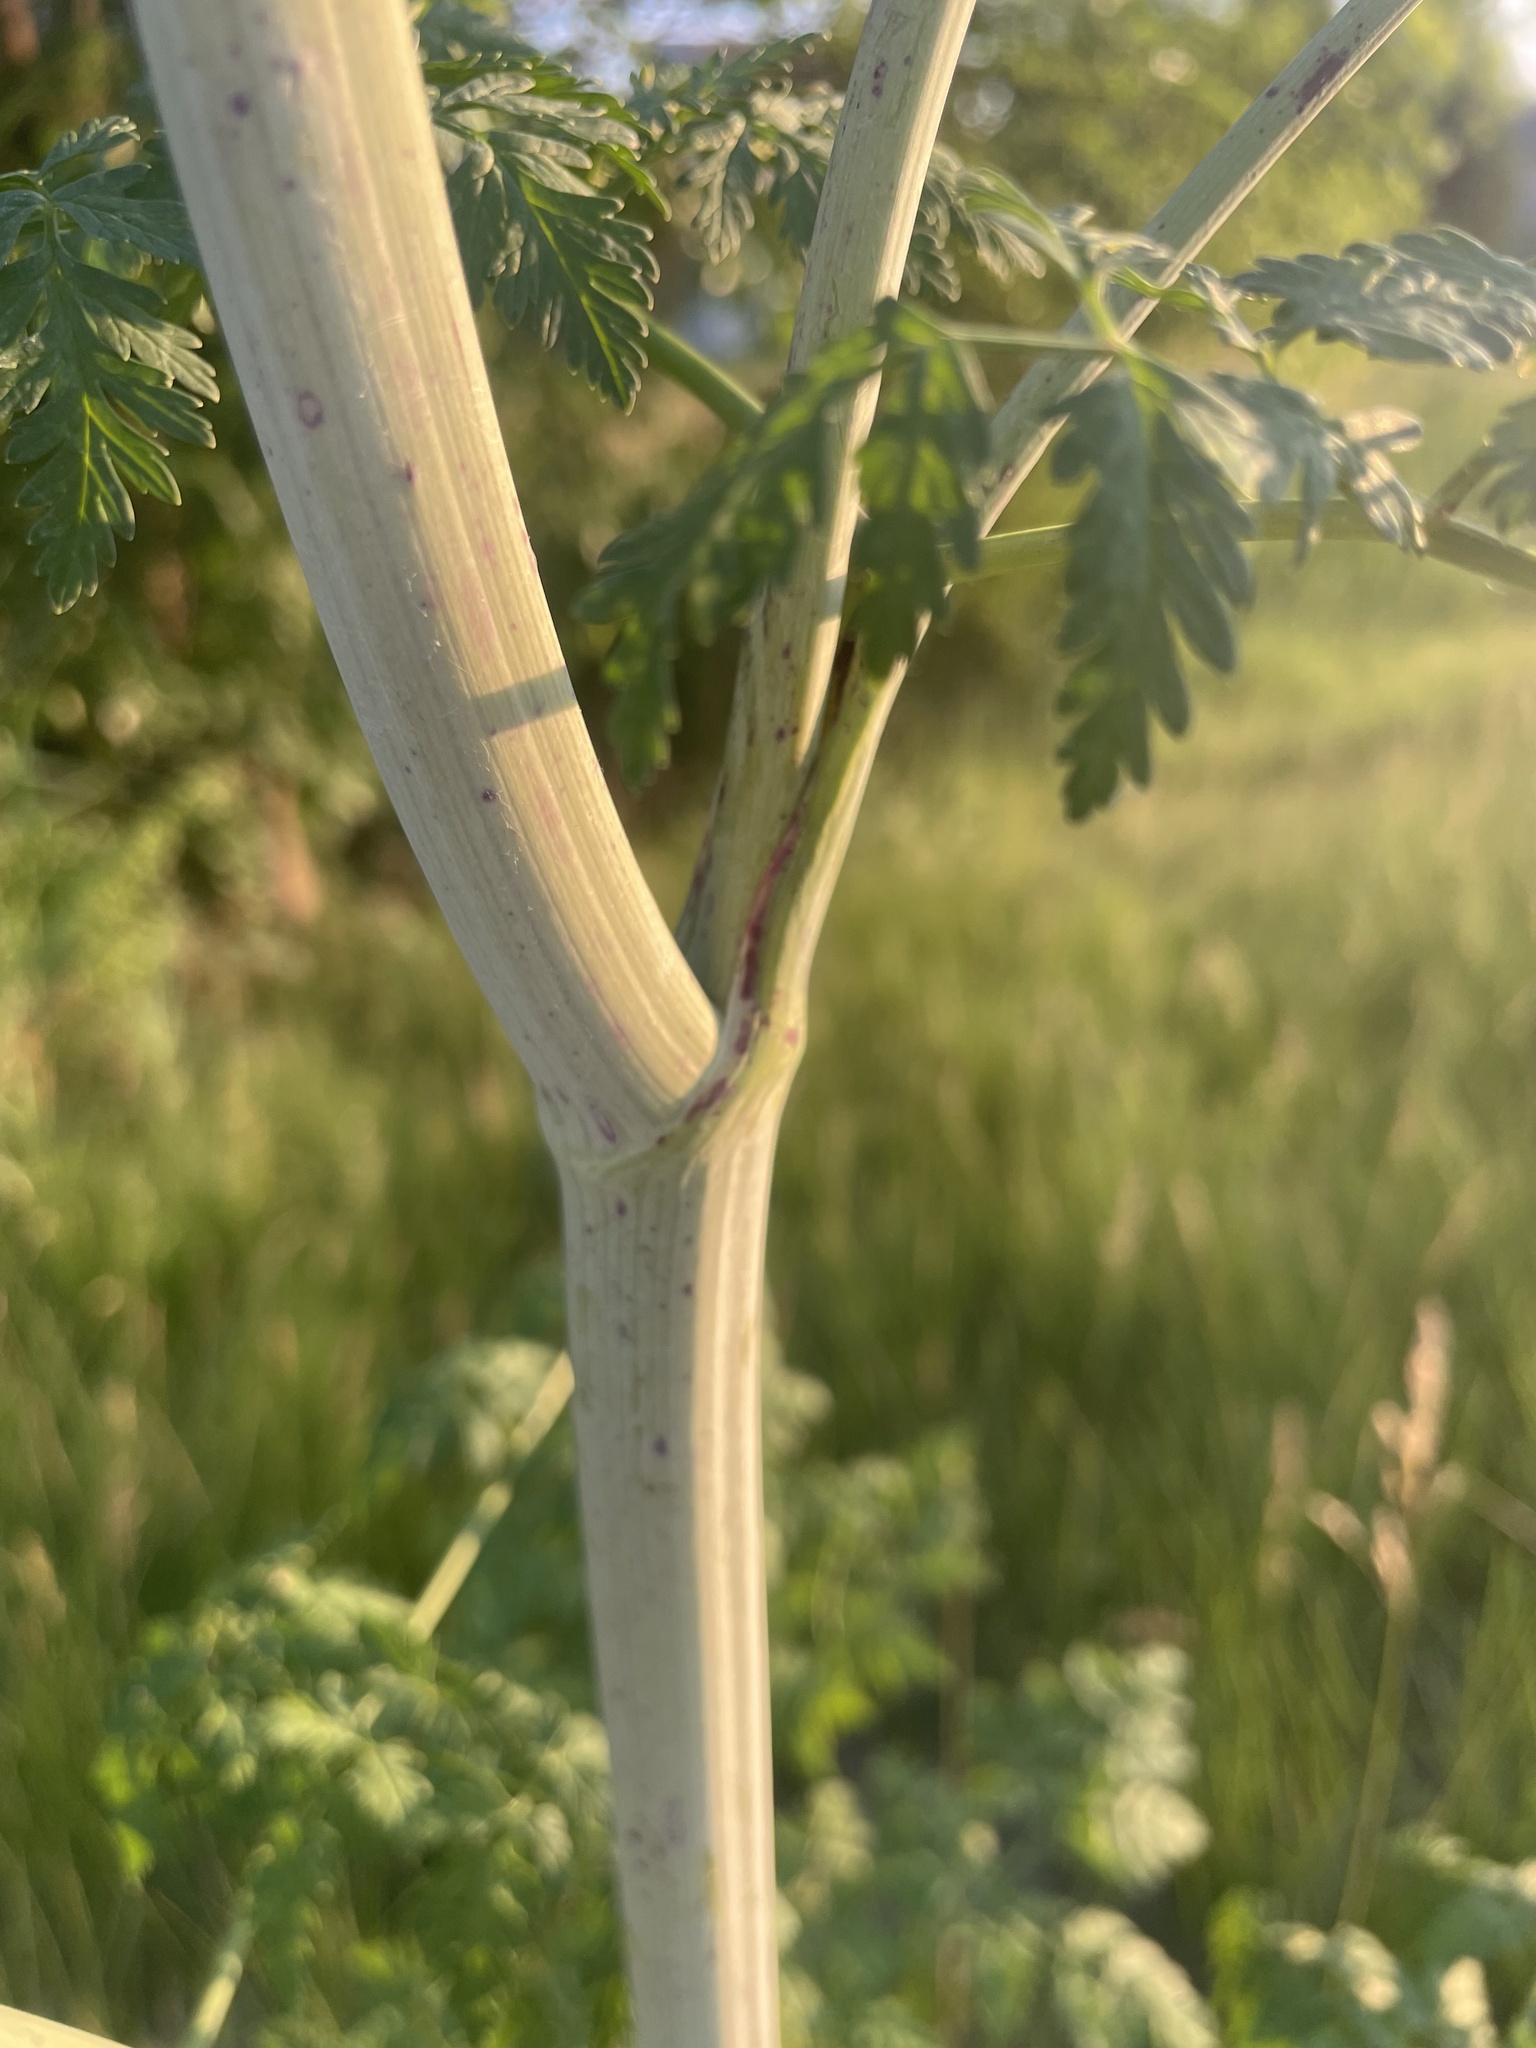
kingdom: Plantae
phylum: Tracheophyta
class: Magnoliopsida
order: Apiales
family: Apiaceae
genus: Conium
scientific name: Conium maculatum
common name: Hemlock
